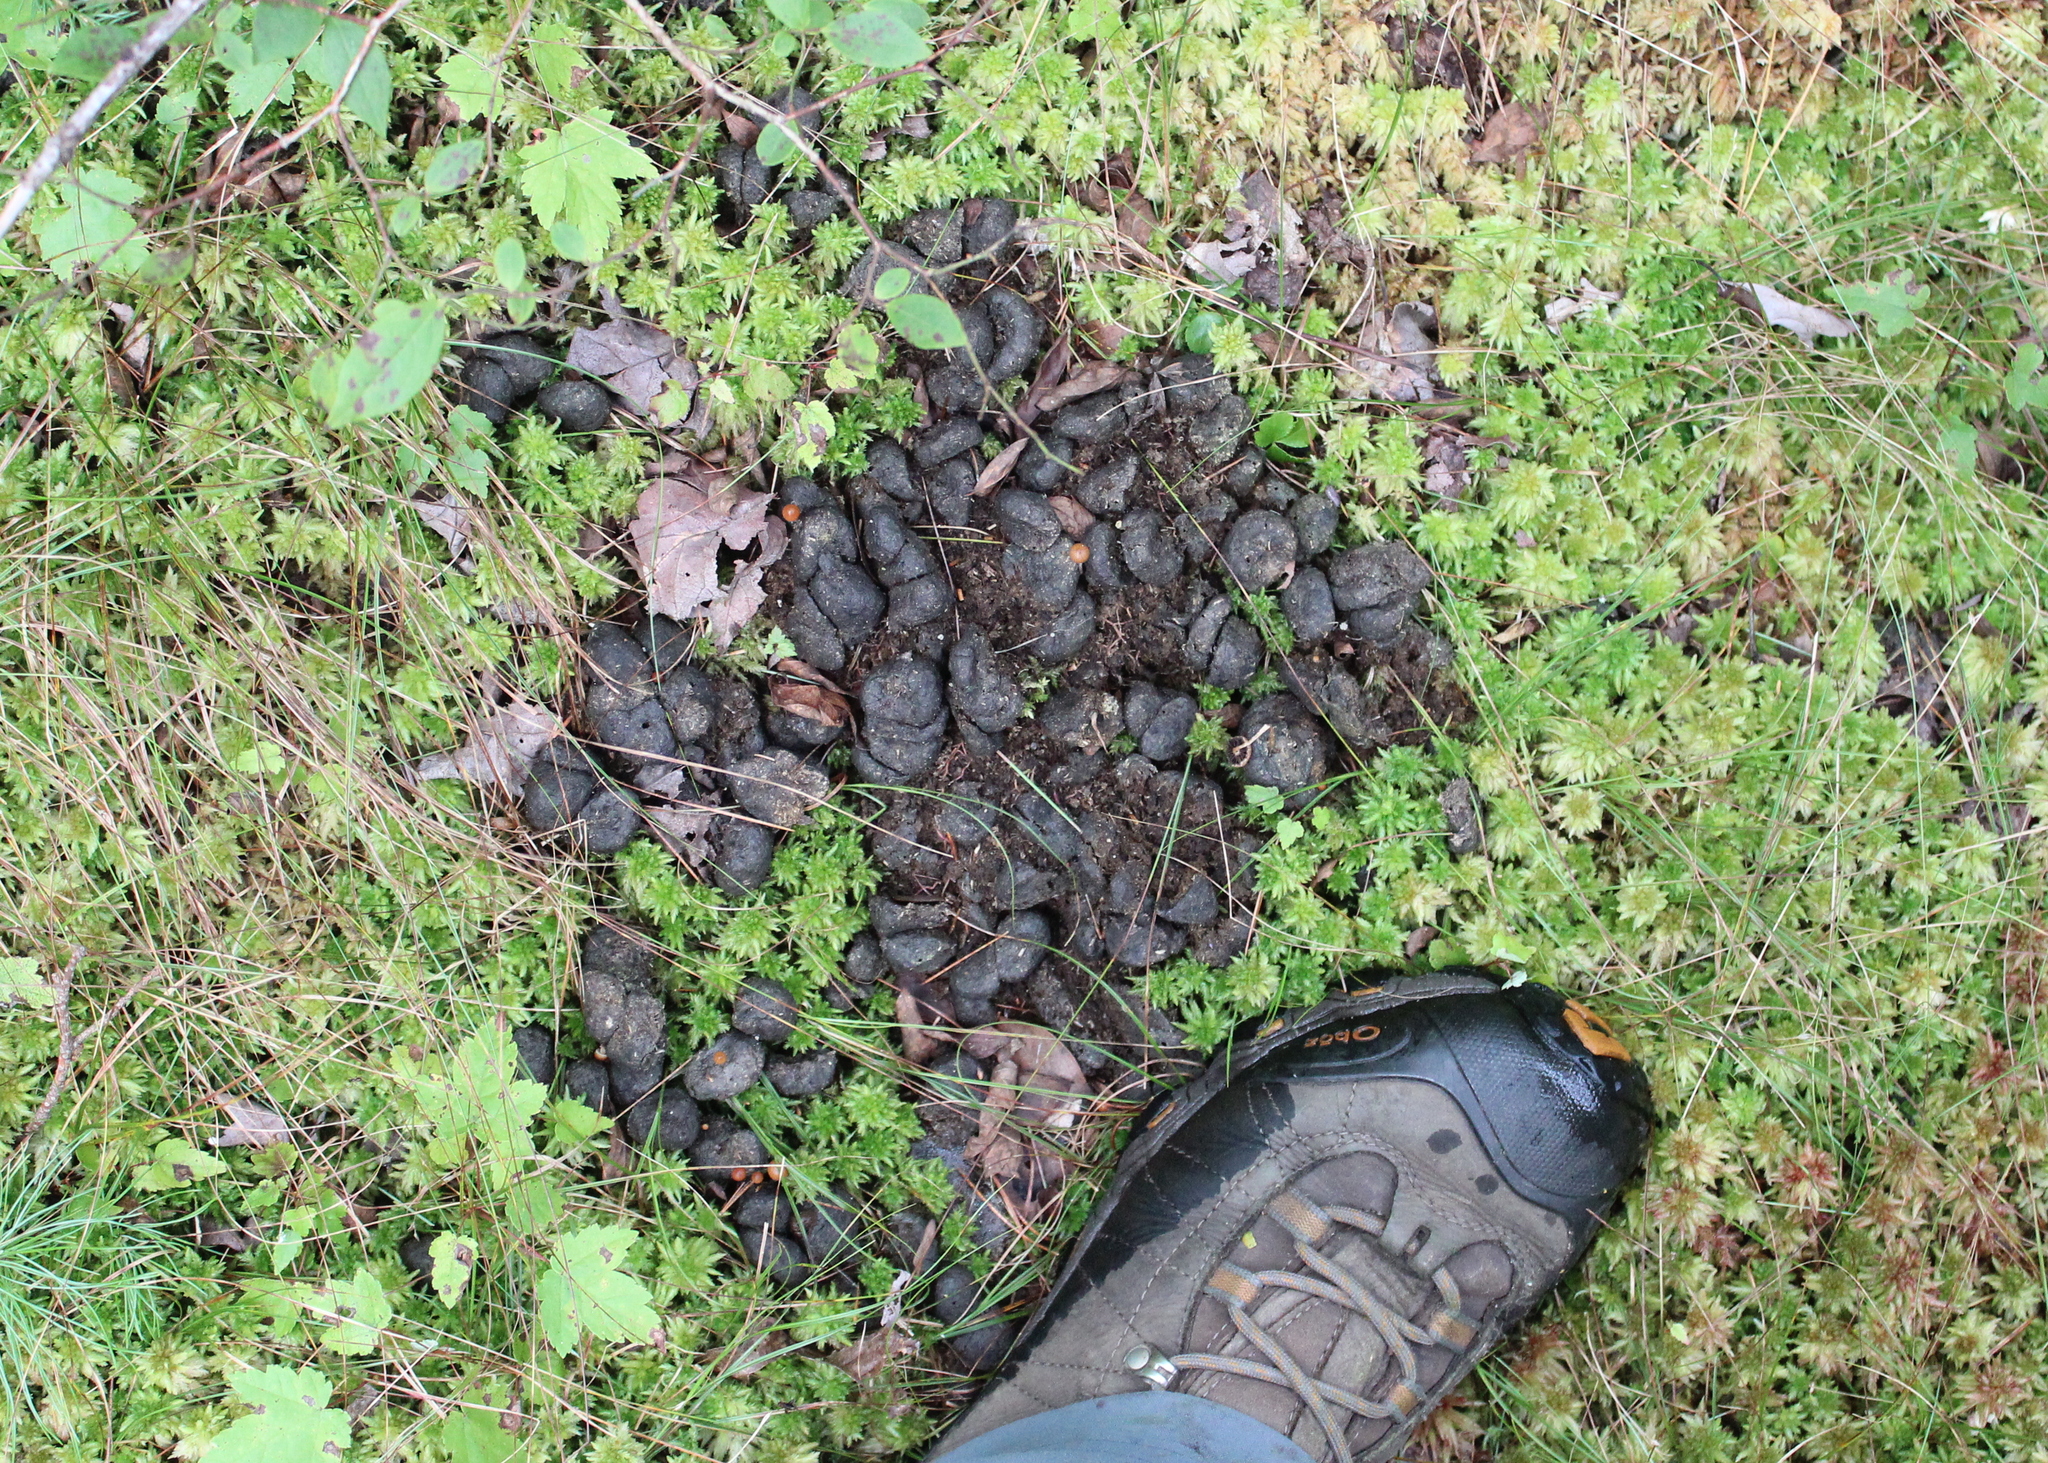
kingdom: Animalia
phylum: Chordata
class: Mammalia
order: Artiodactyla
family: Cervidae
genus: Alces
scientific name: Alces alces
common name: Moose
